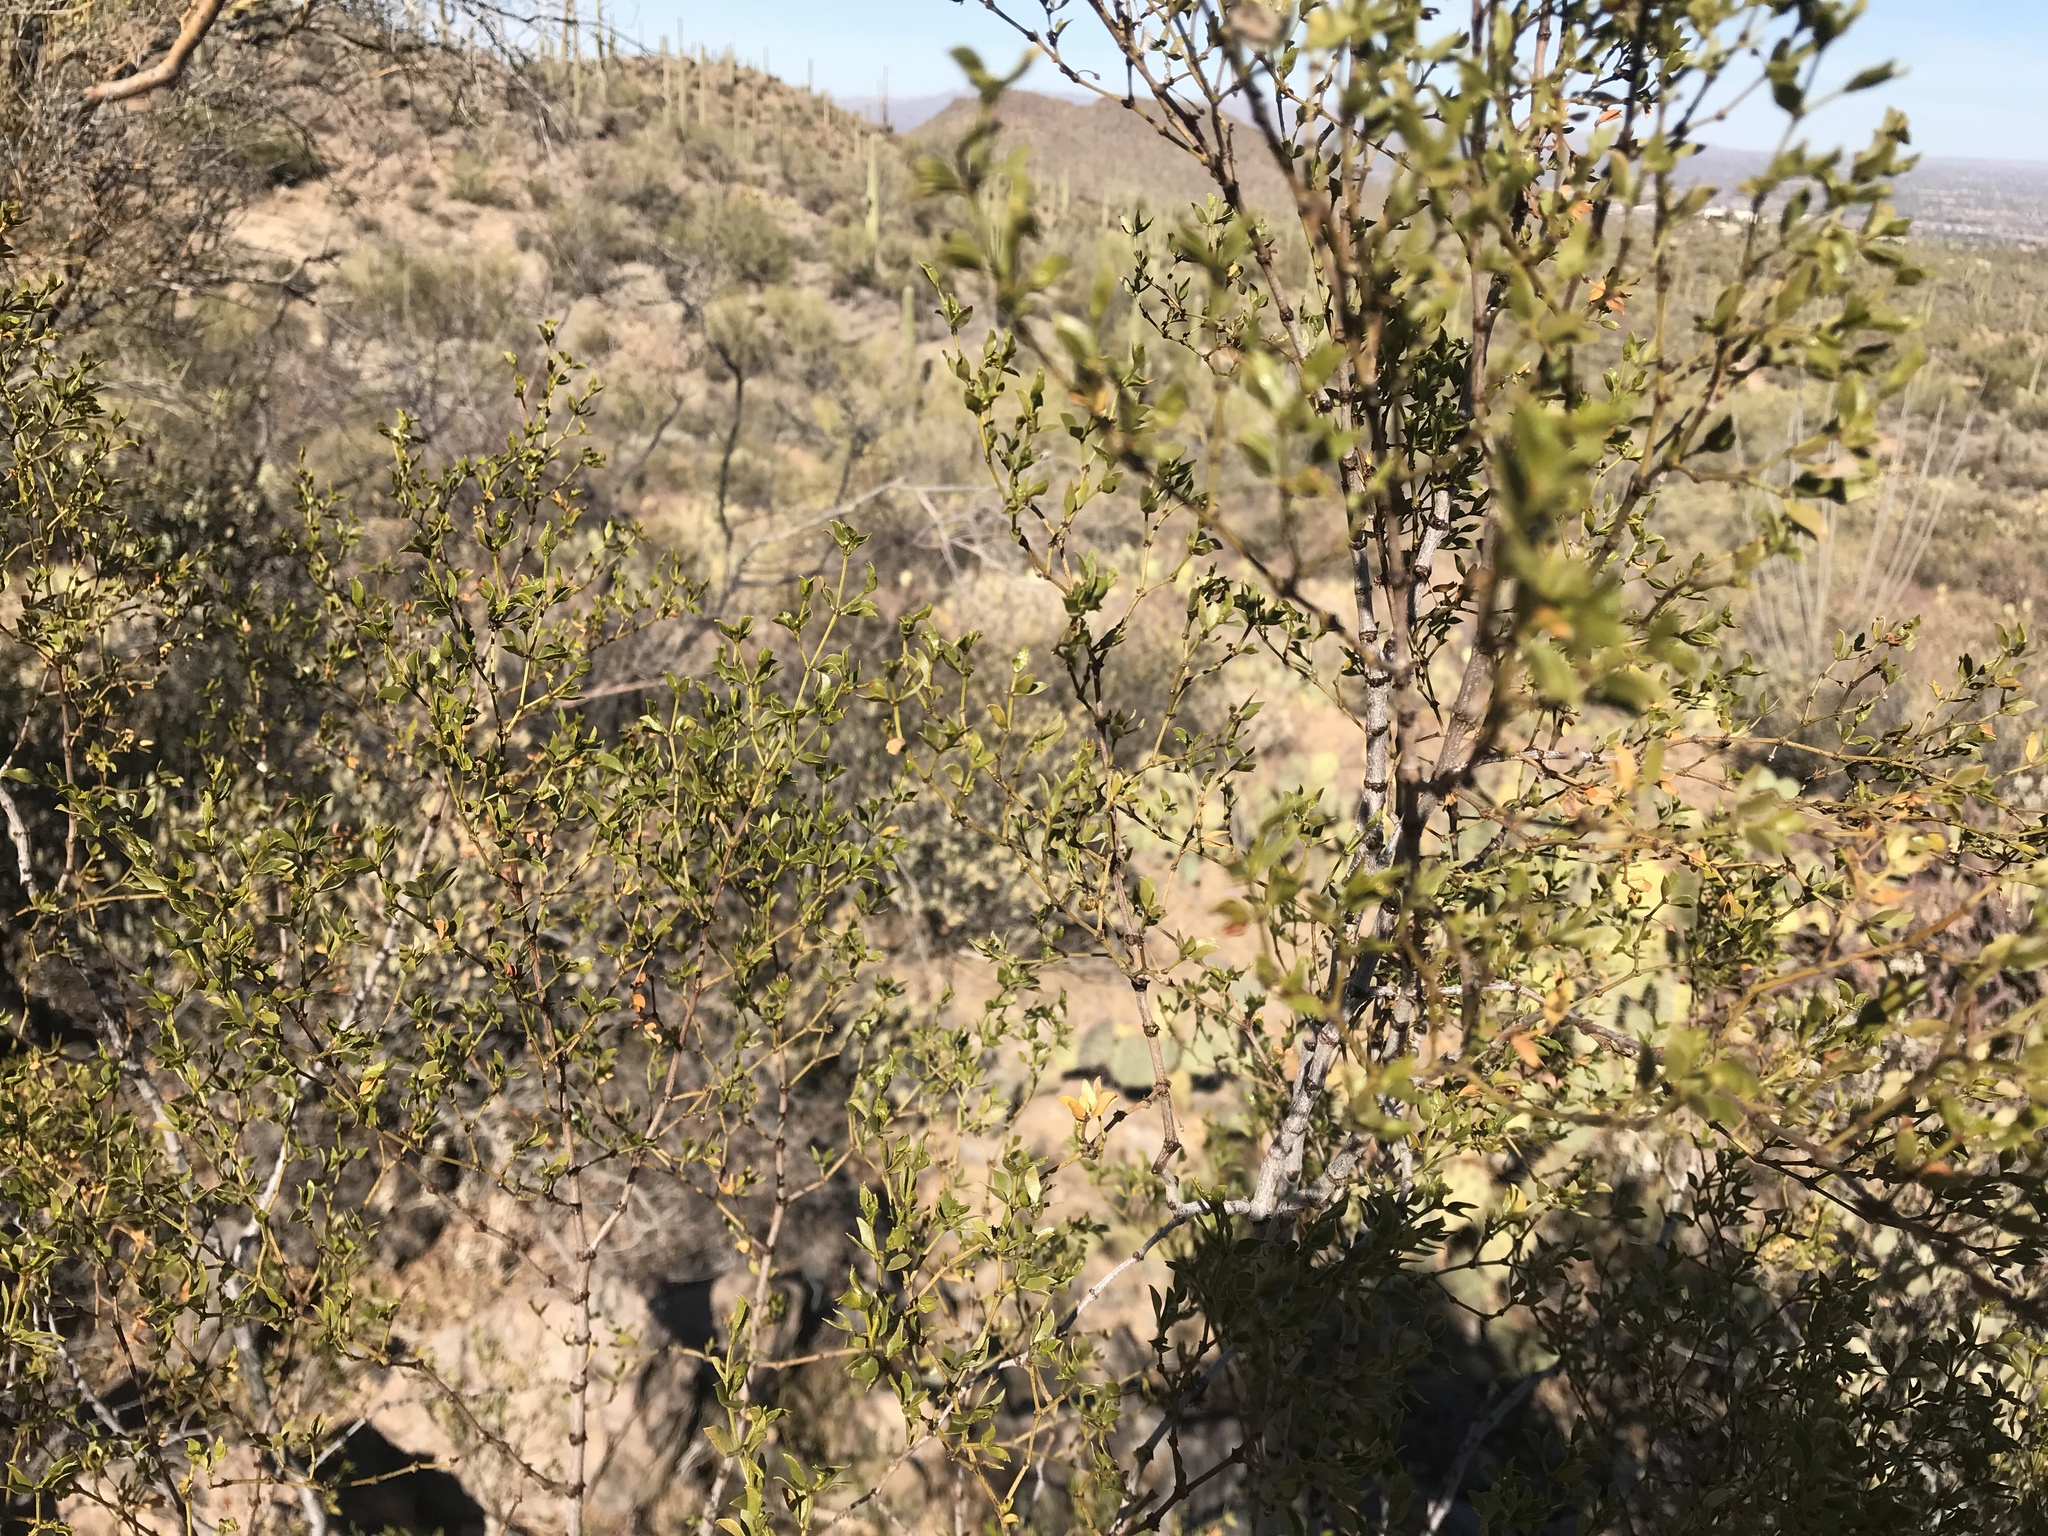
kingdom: Plantae
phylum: Tracheophyta
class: Magnoliopsida
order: Zygophyllales
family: Zygophyllaceae
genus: Larrea
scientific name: Larrea tridentata
